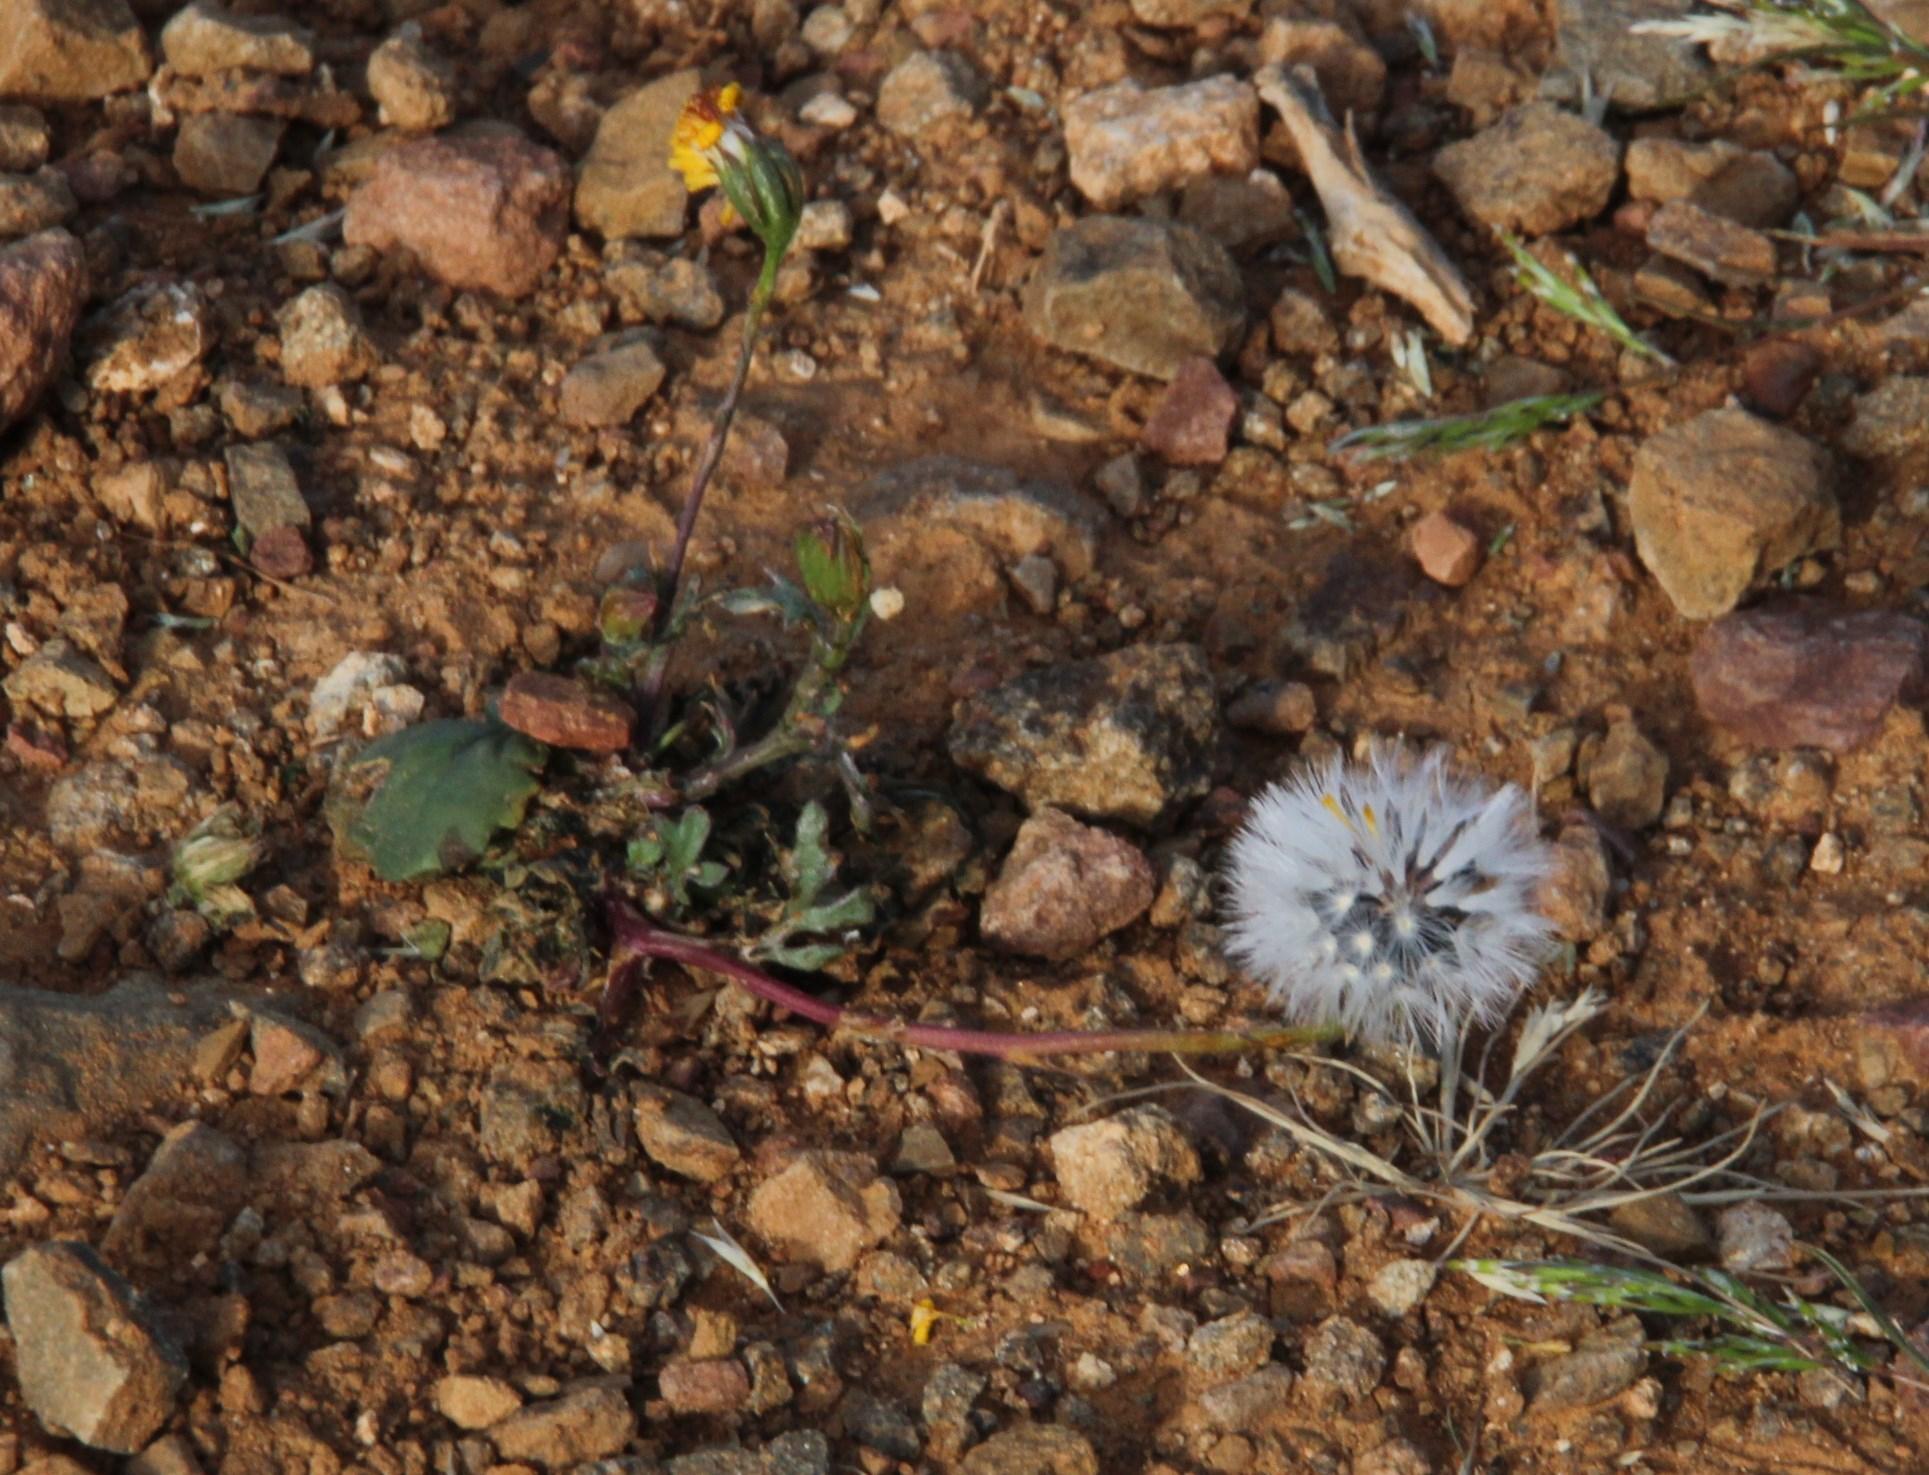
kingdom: Plantae
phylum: Tracheophyta
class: Magnoliopsida
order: Asterales
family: Asteraceae
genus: Senecio
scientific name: Senecio glutinosus
